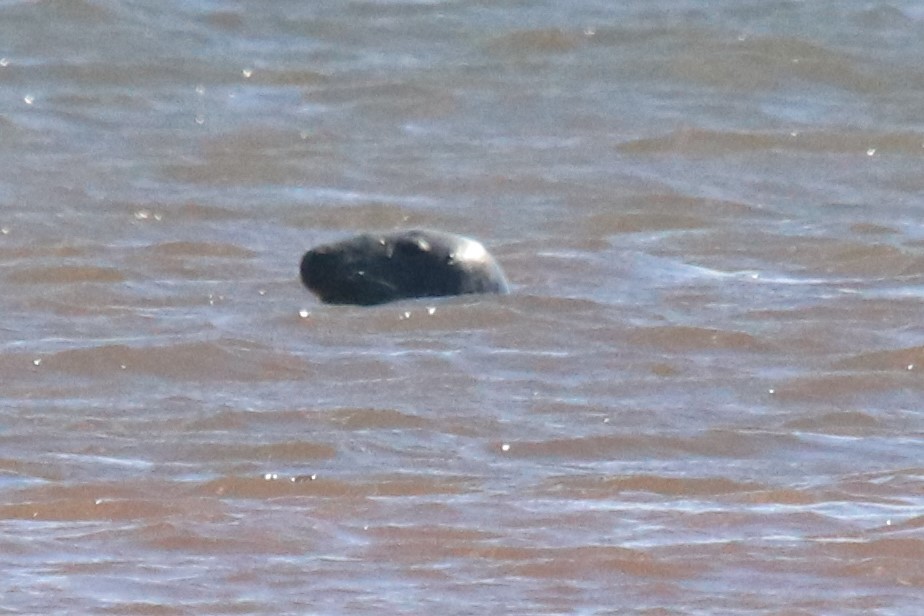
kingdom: Animalia
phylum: Chordata
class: Mammalia
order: Carnivora
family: Phocidae
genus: Halichoerus
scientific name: Halichoerus grypus
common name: Grey seal
